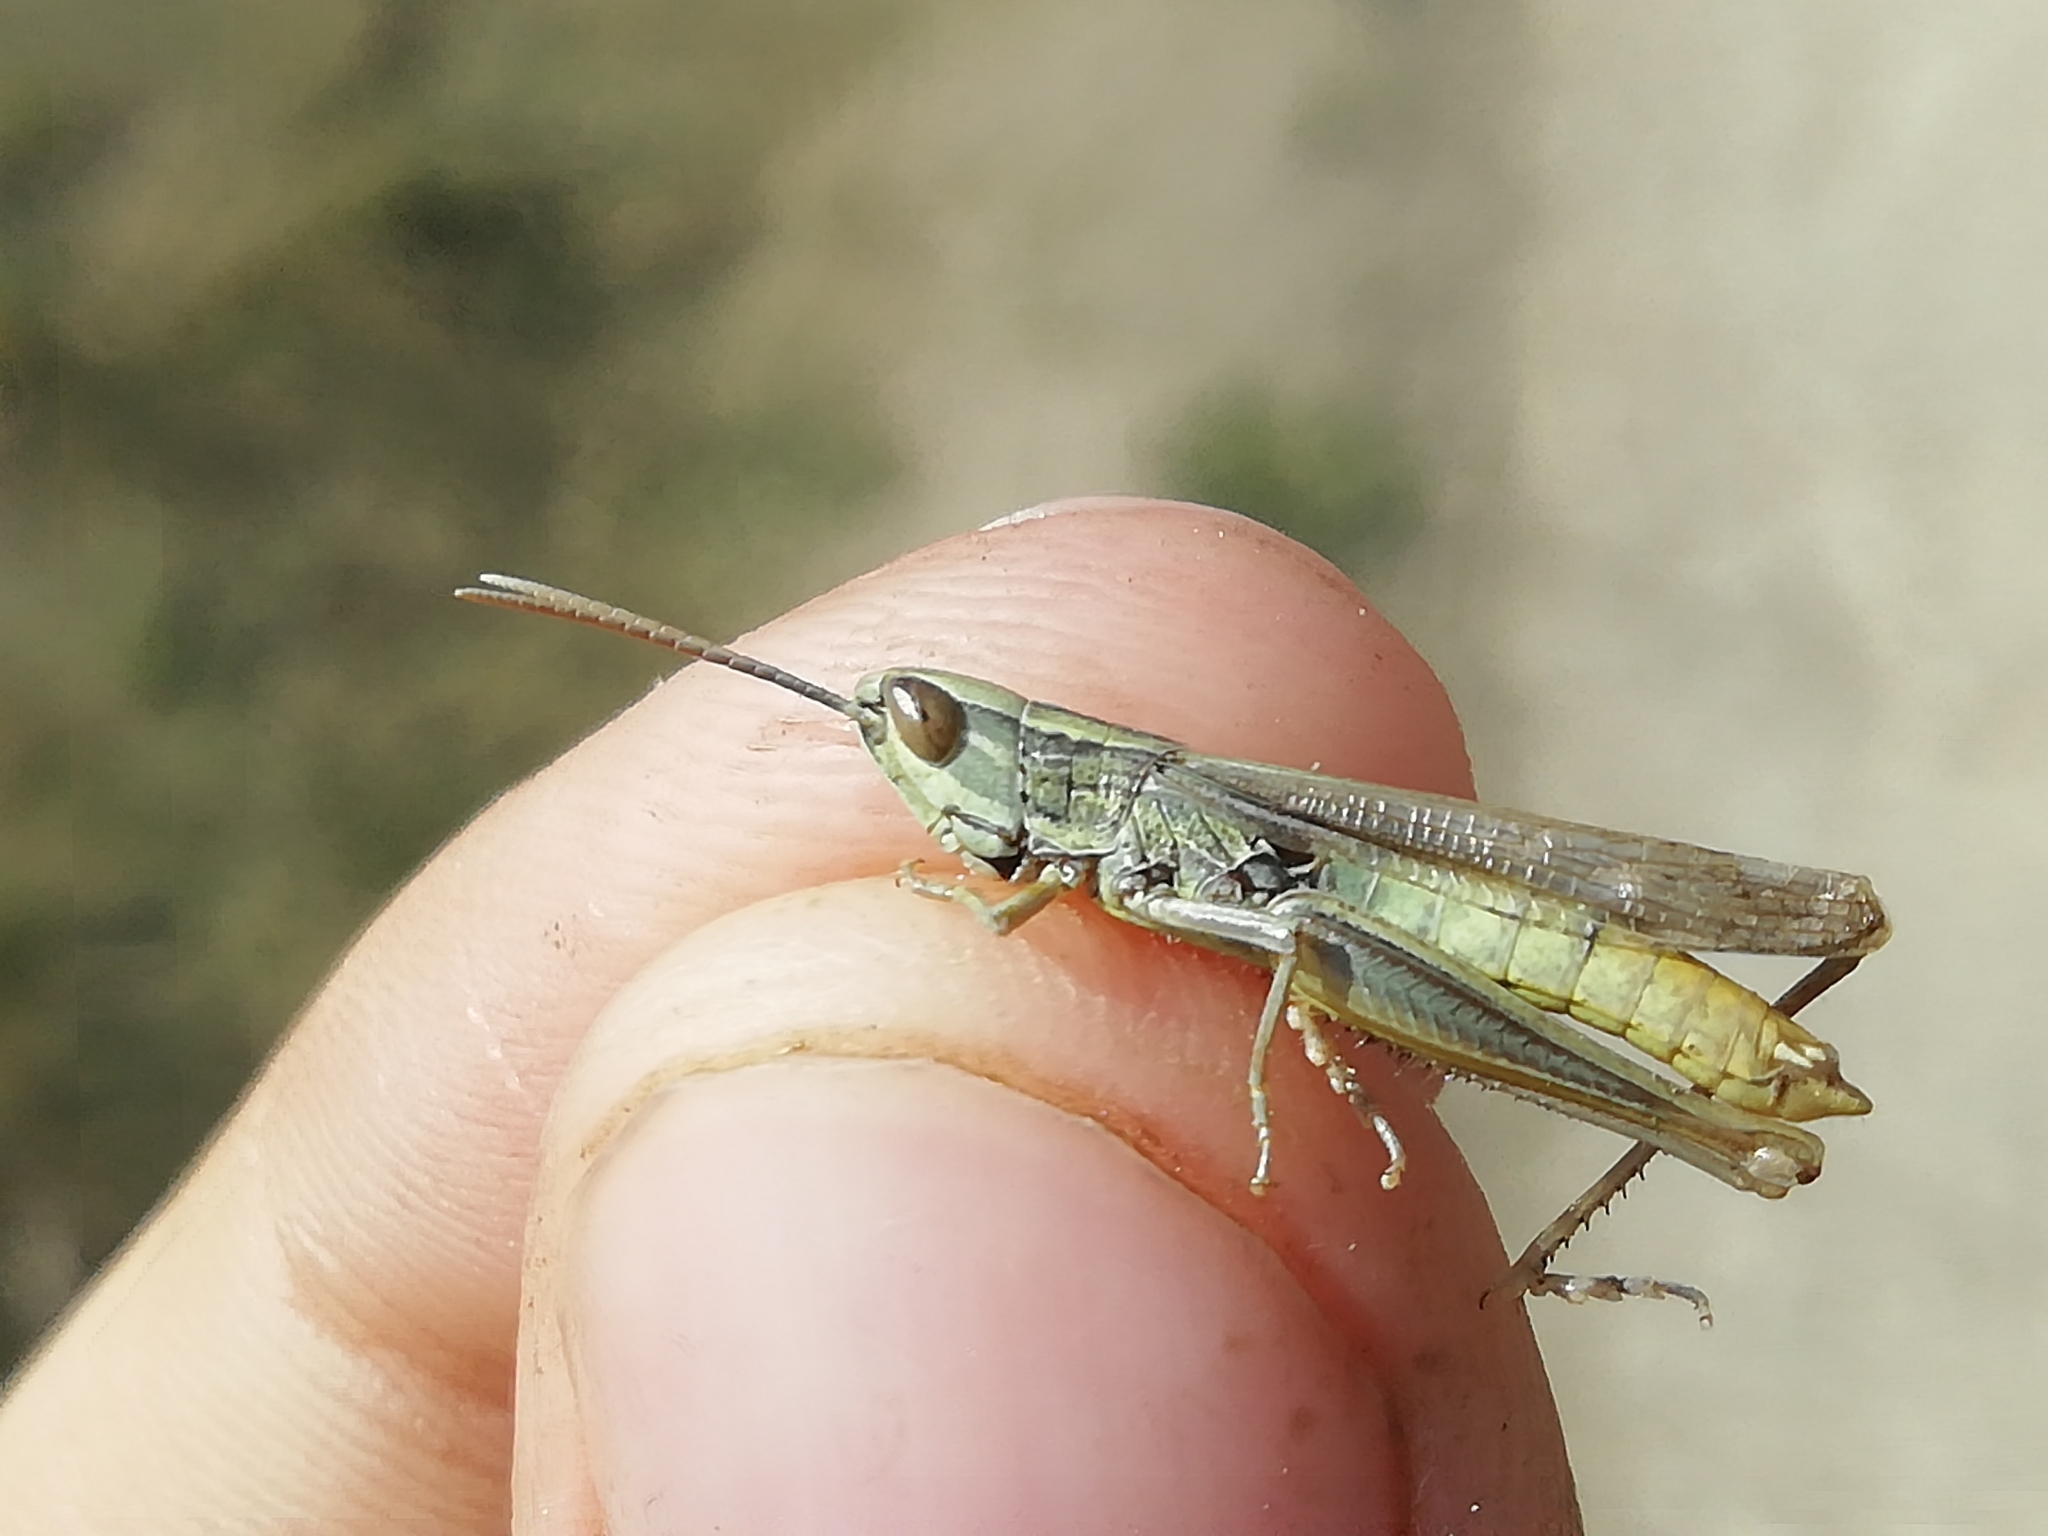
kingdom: Animalia
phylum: Arthropoda
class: Insecta
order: Orthoptera
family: Acrididae
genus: Euchorthippus
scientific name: Euchorthippus pulvinatus
